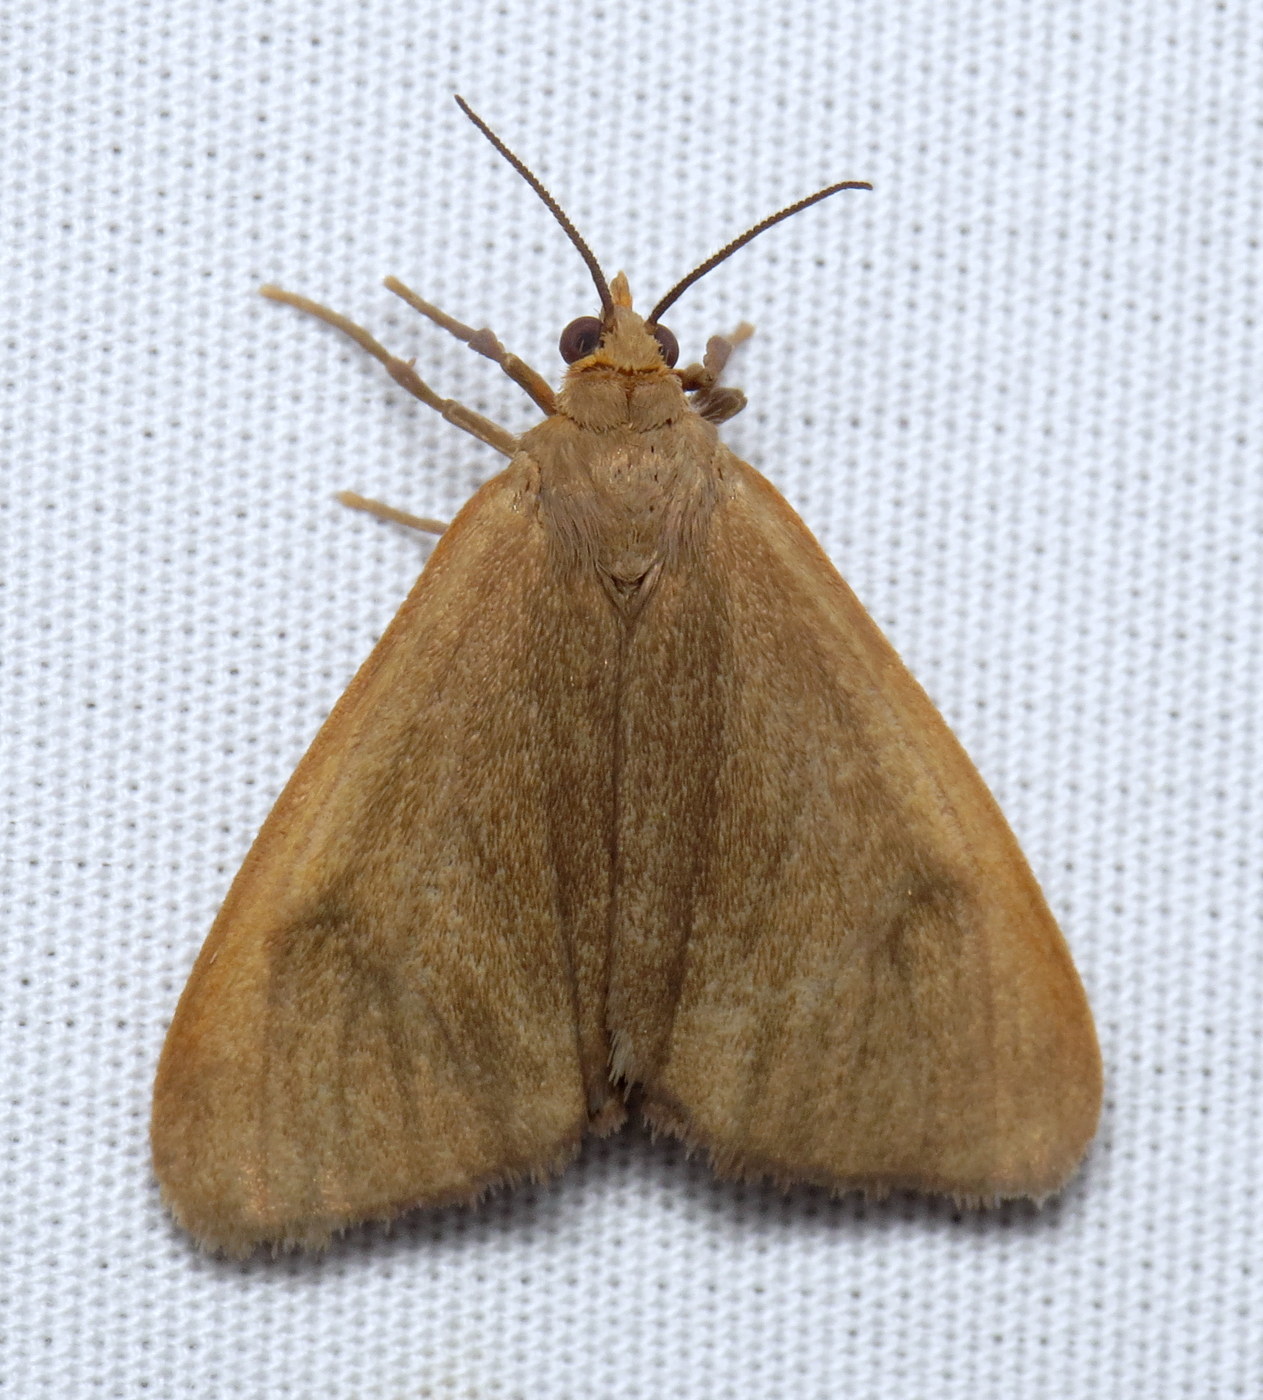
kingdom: Animalia
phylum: Arthropoda
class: Insecta
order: Lepidoptera
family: Erebidae
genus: Virbia
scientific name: Virbia opella
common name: Tawny virbia moth
